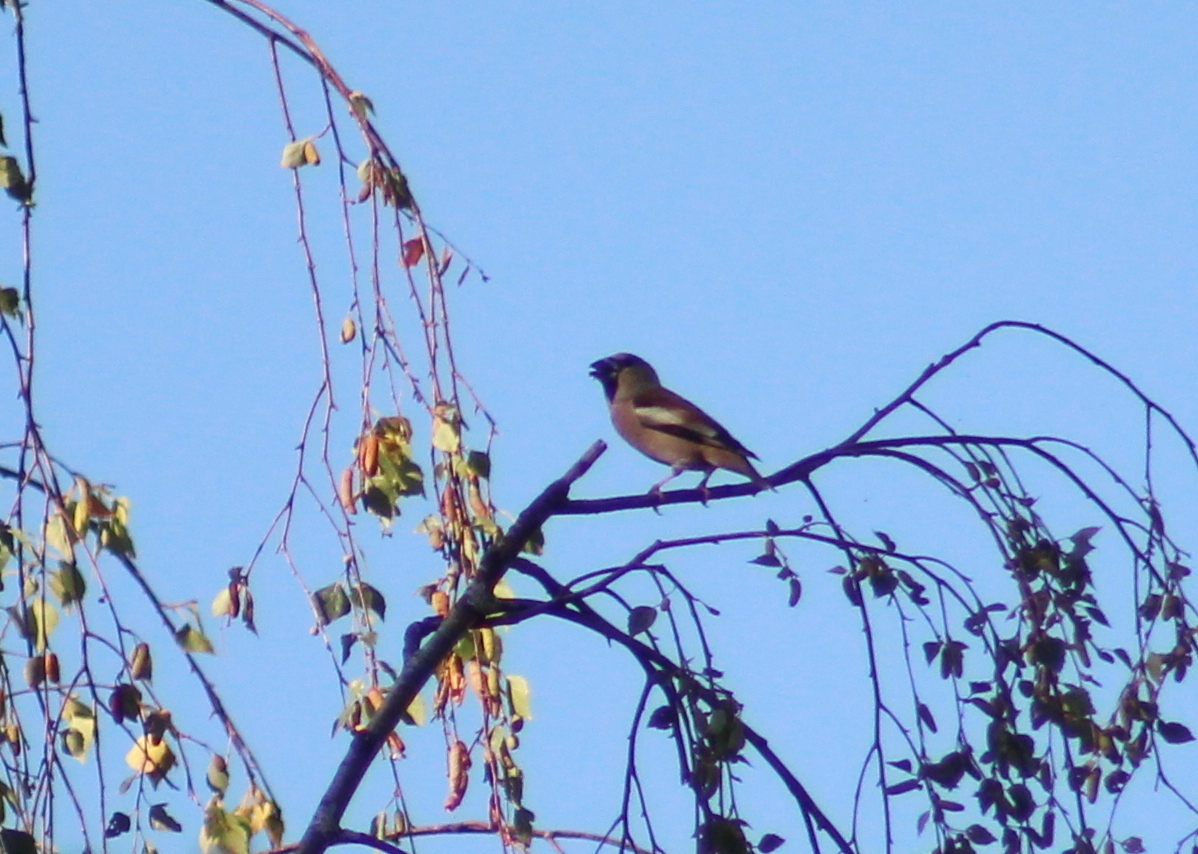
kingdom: Animalia
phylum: Chordata
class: Aves
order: Passeriformes
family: Fringillidae
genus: Coccothraustes
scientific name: Coccothraustes coccothraustes
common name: Hawfinch
